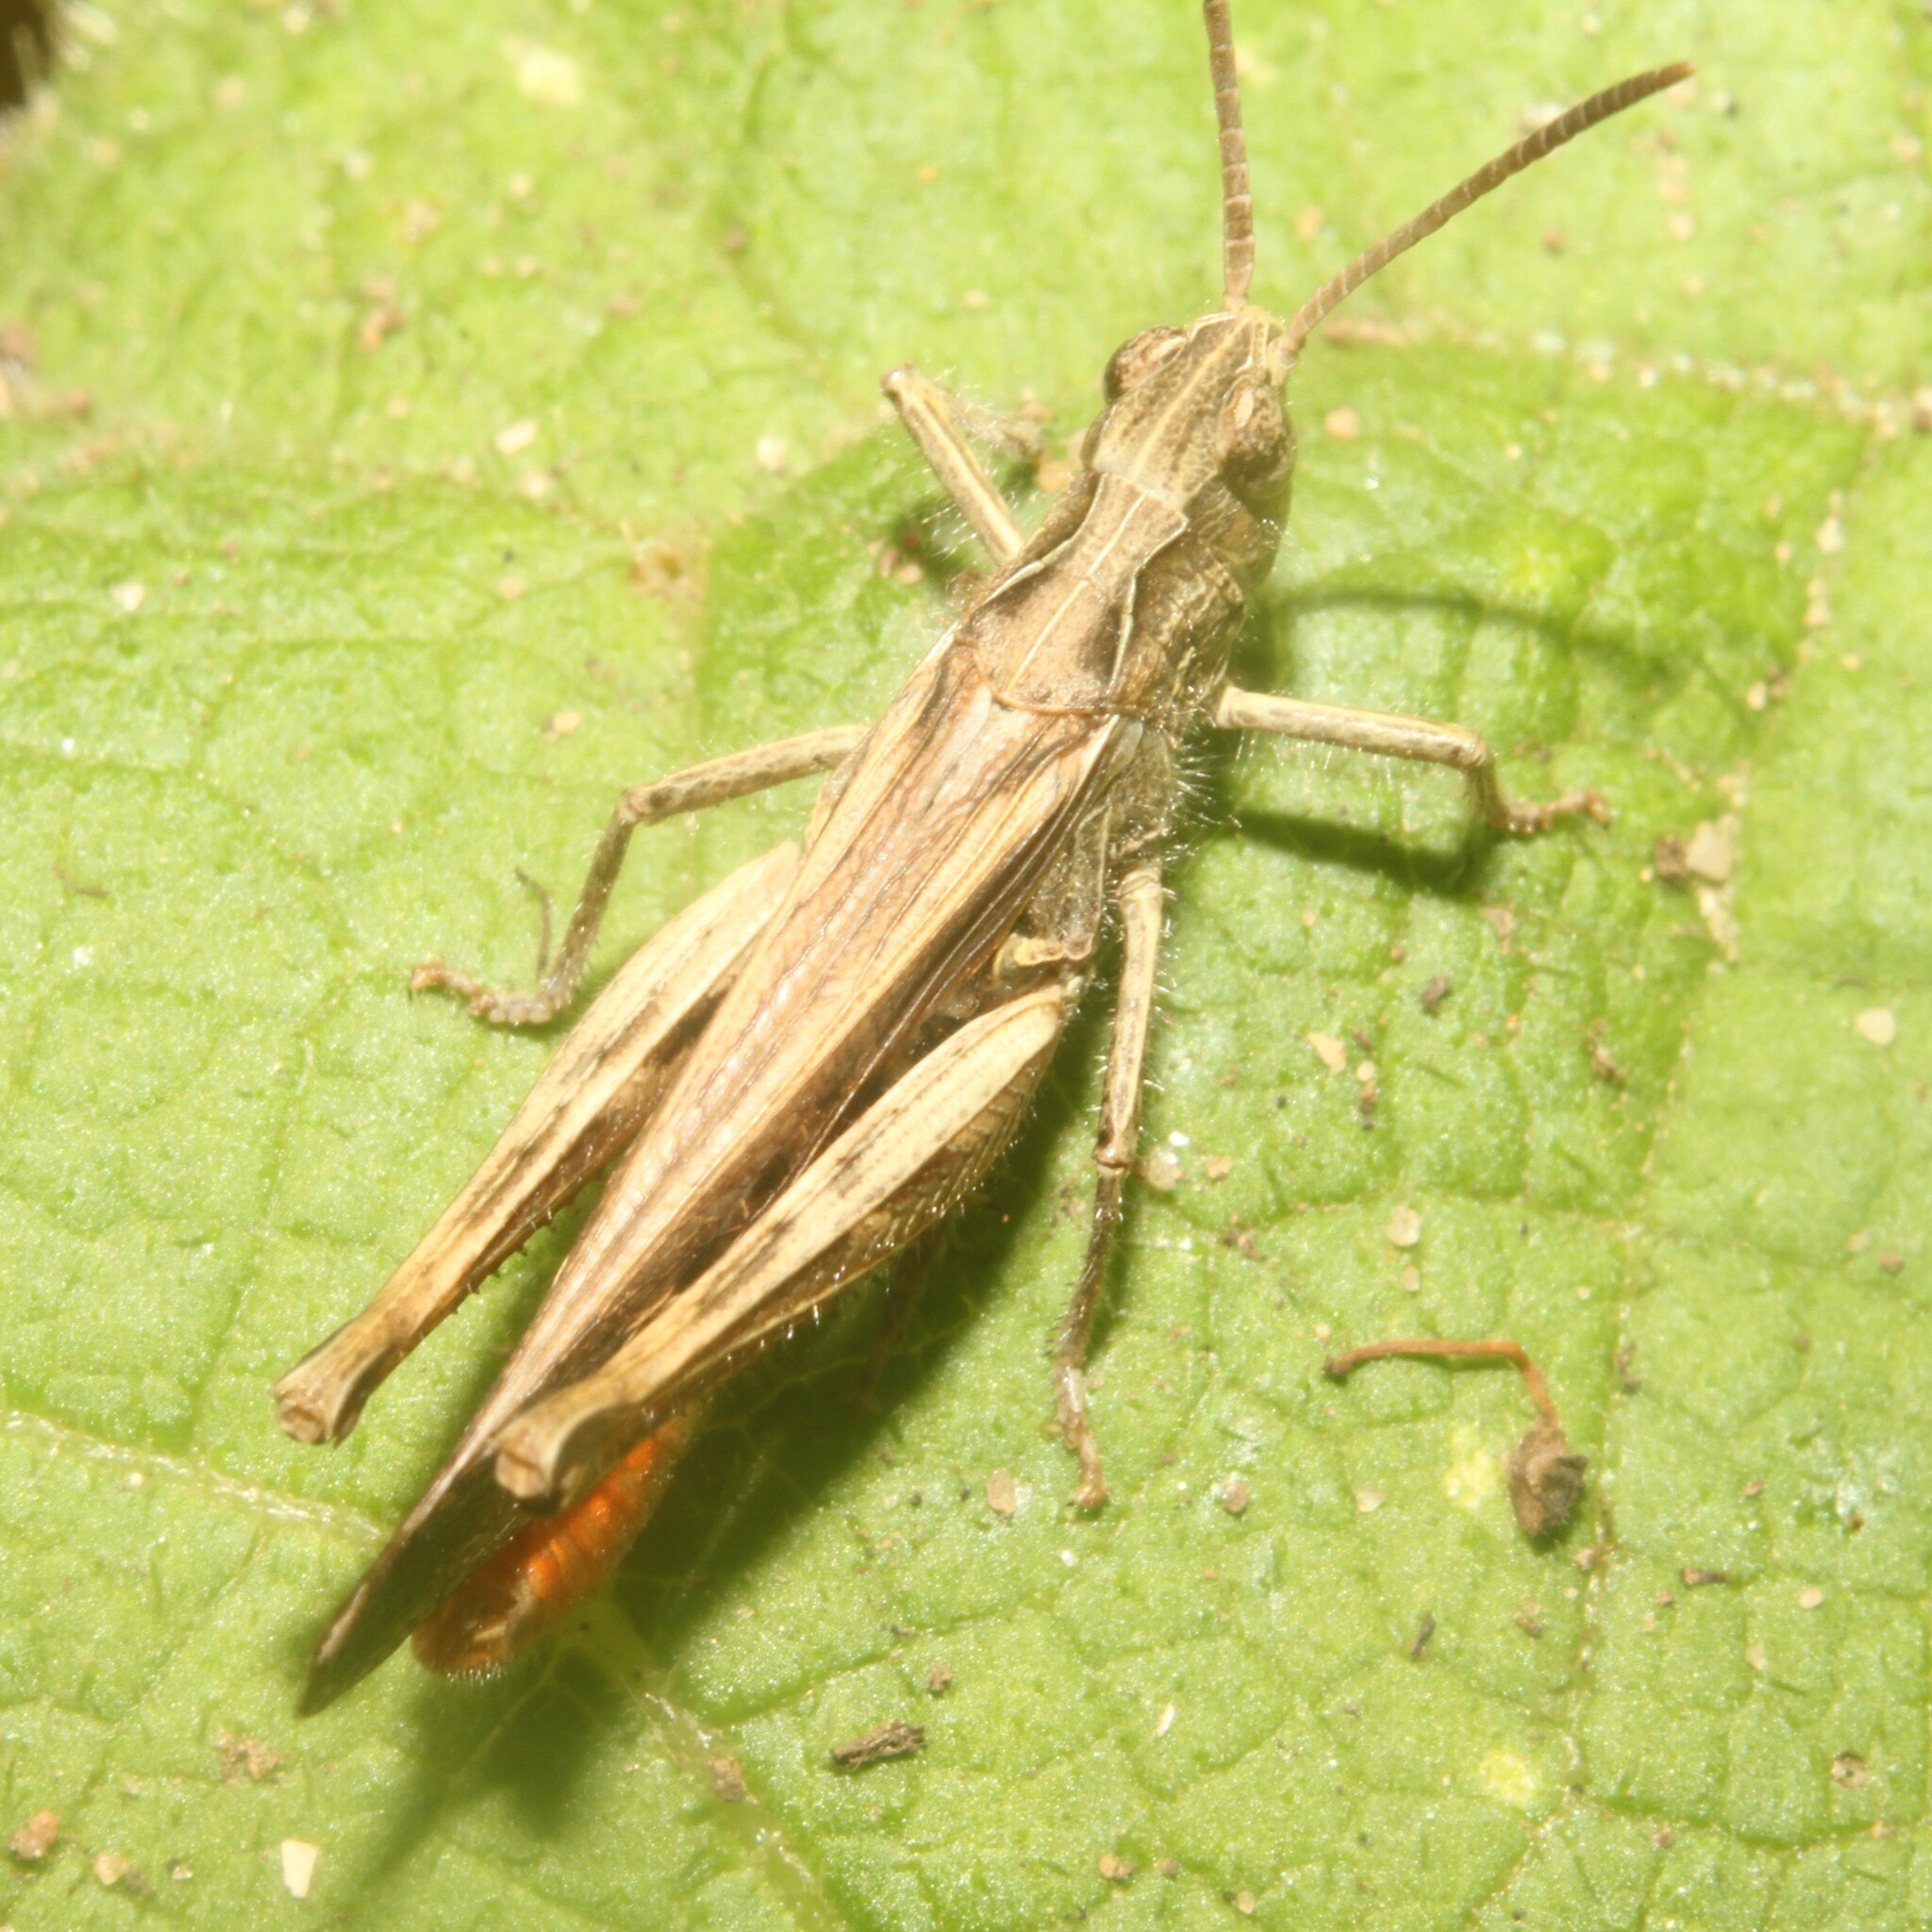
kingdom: Animalia
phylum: Arthropoda
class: Insecta
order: Orthoptera
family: Acrididae
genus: Chorthippus
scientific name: Chorthippus brunneus
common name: Field grasshopper
